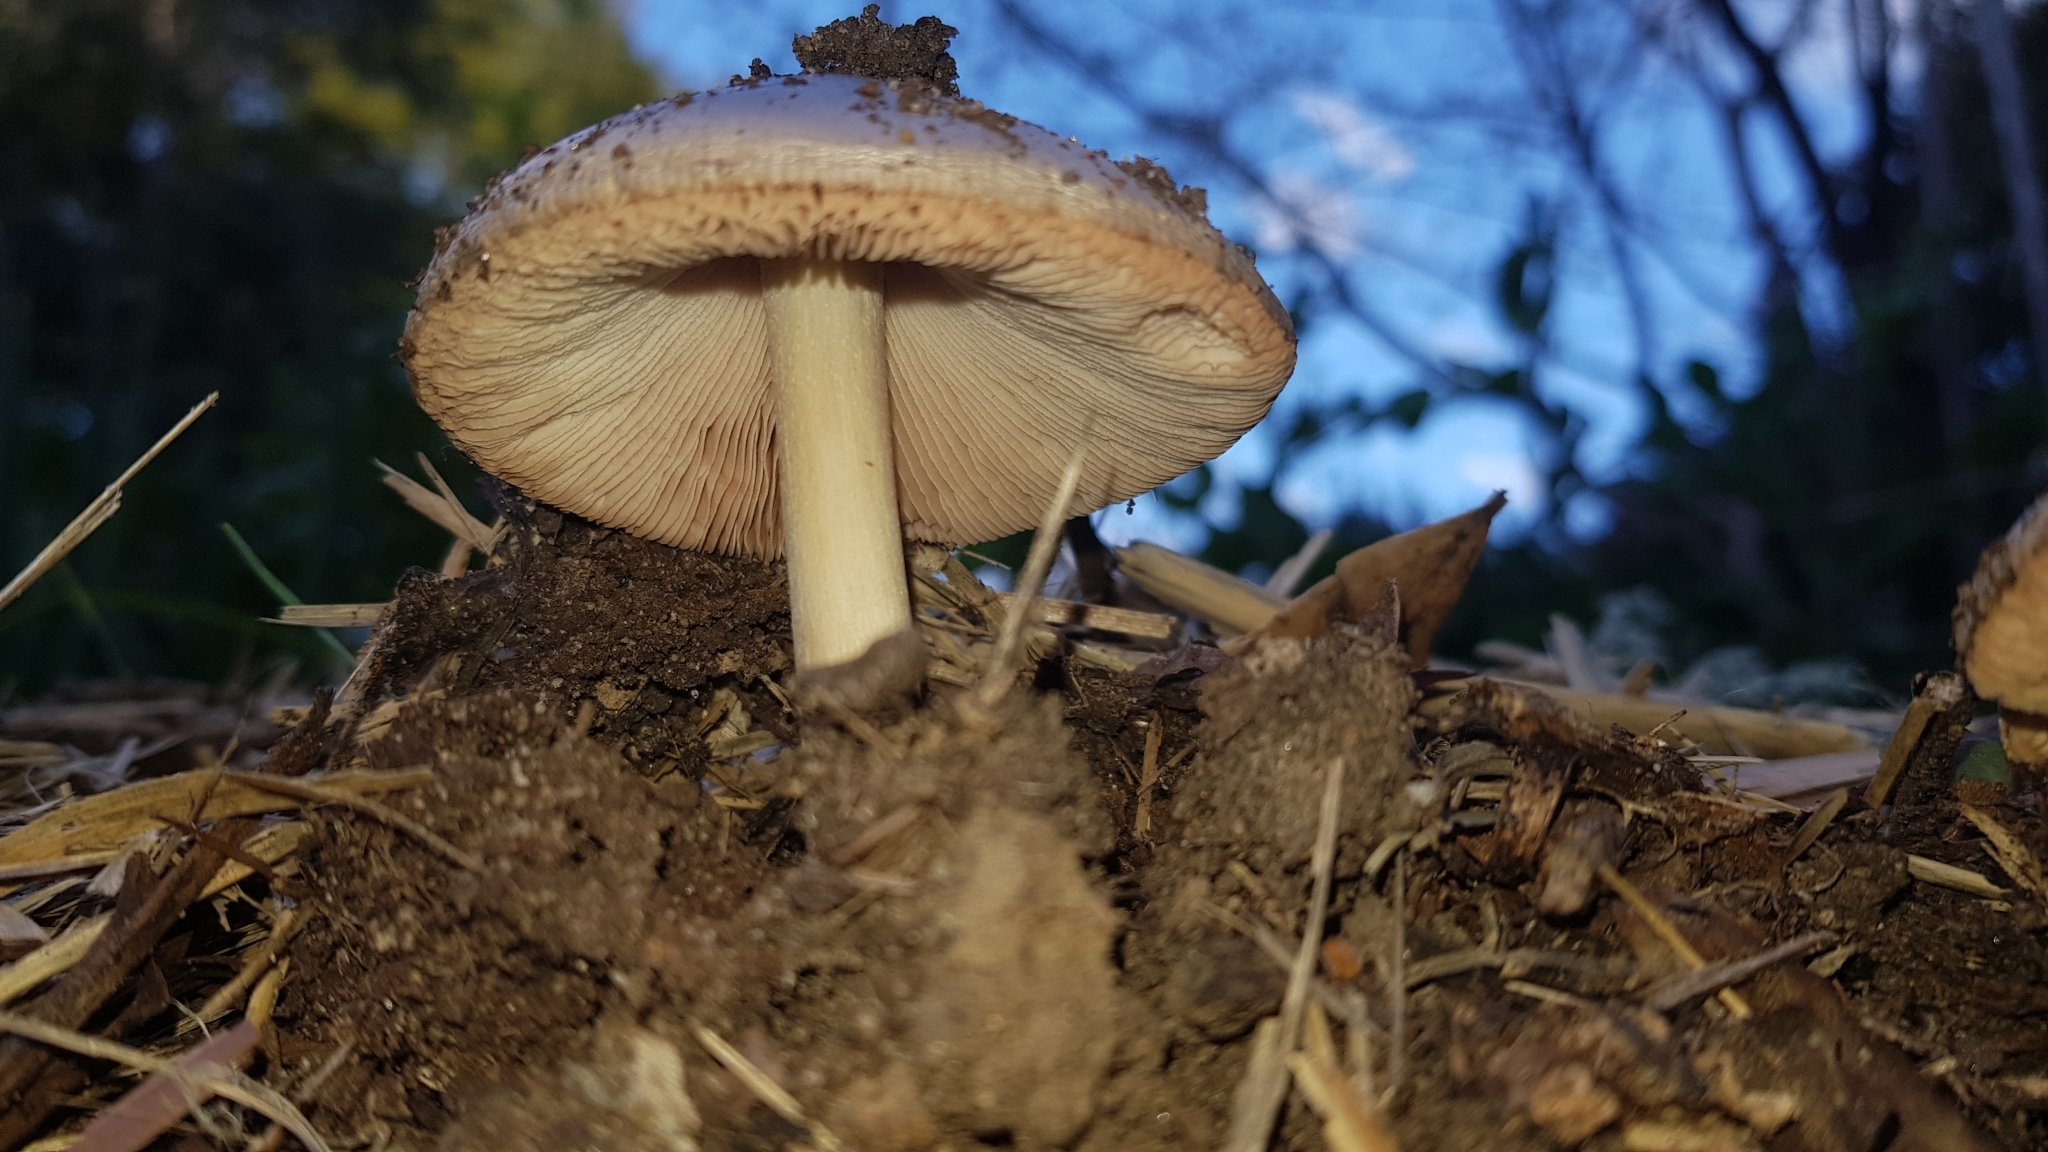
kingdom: Fungi
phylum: Basidiomycota
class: Agaricomycetes
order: Agaricales
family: Pluteaceae
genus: Volvopluteus
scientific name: Volvopluteus gloiocephalus
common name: Stubble rosegill
